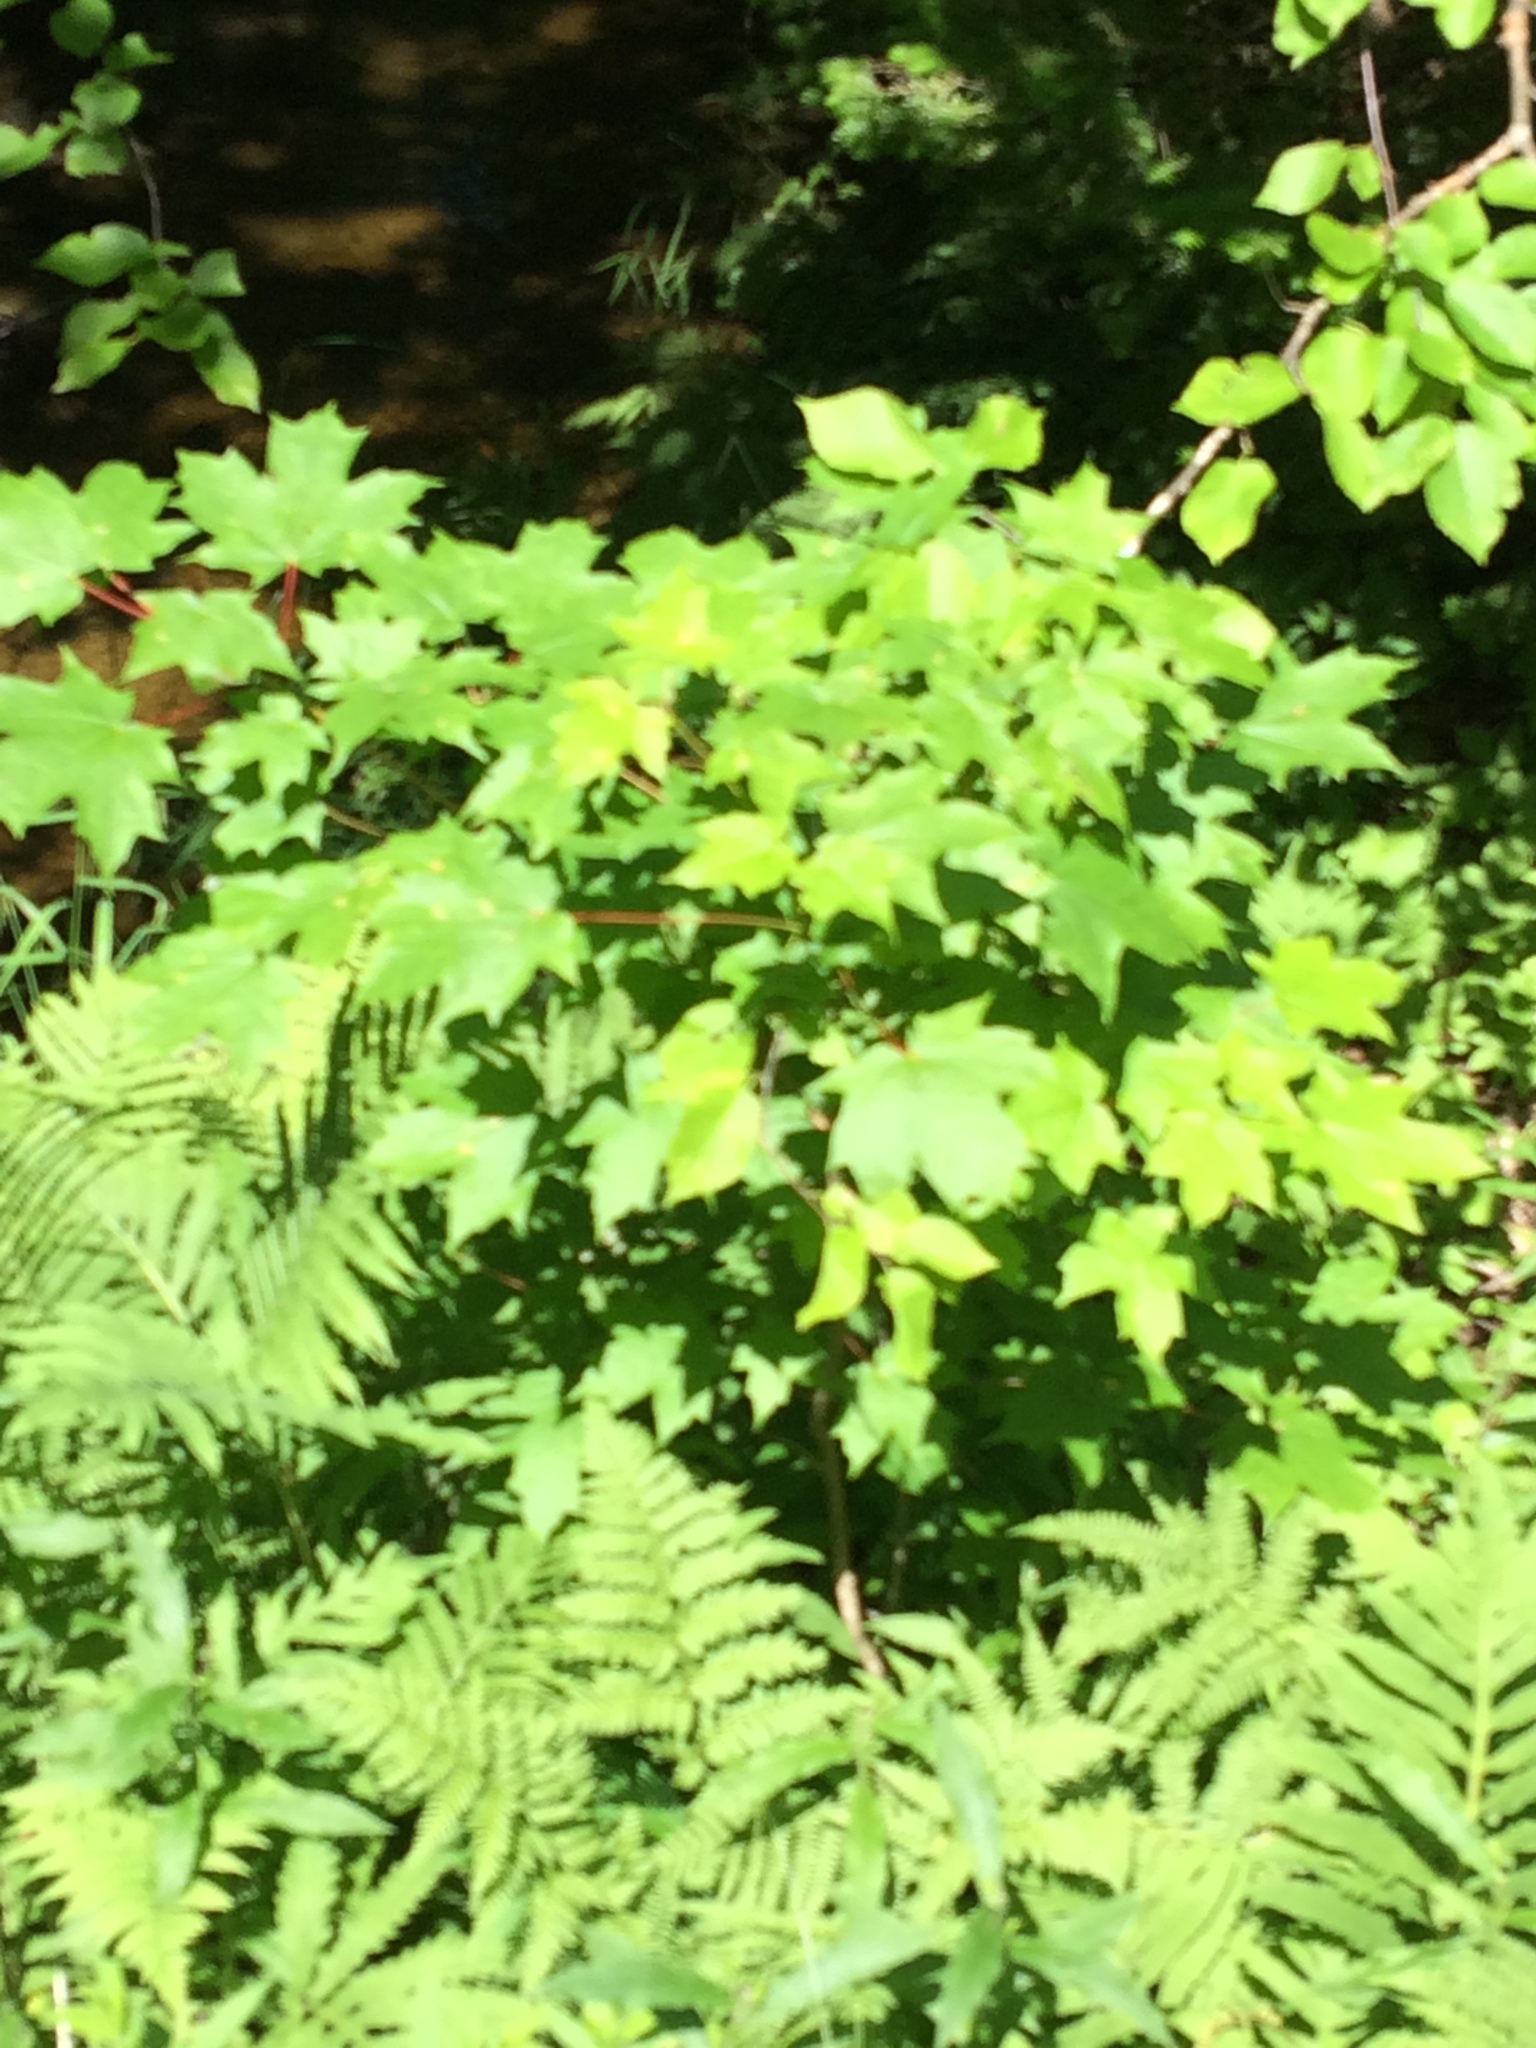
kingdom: Plantae
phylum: Tracheophyta
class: Magnoliopsida
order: Sapindales
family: Sapindaceae
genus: Acer
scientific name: Acer saccharum
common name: Sugar maple
